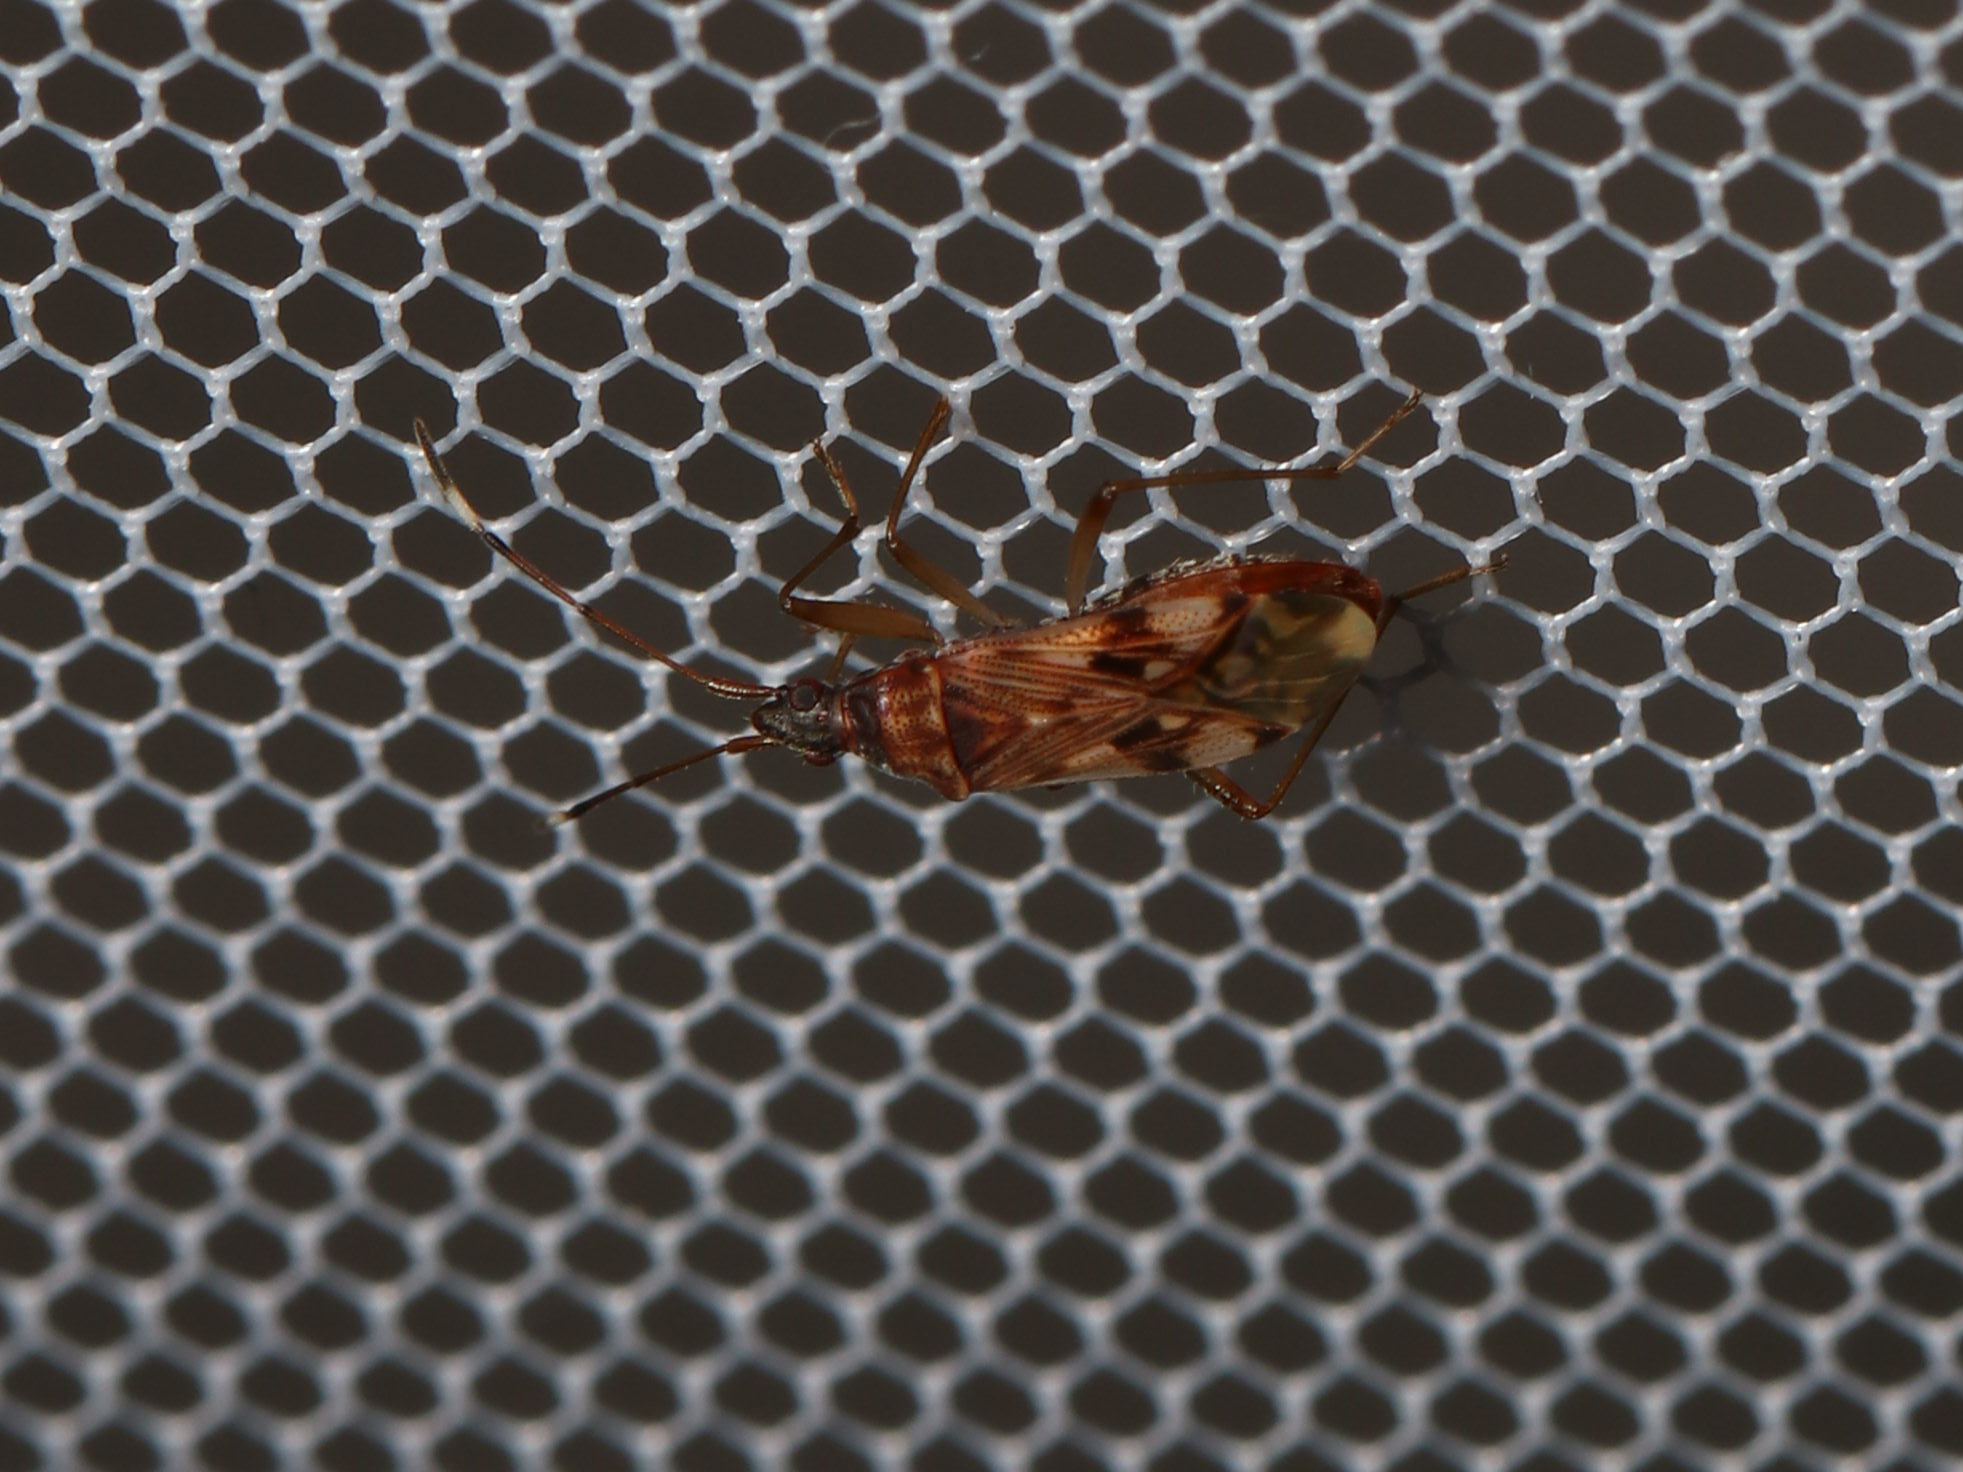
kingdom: Animalia
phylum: Arthropoda
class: Insecta
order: Hemiptera
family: Rhyparochromidae
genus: Ozophora
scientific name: Ozophora picturata
